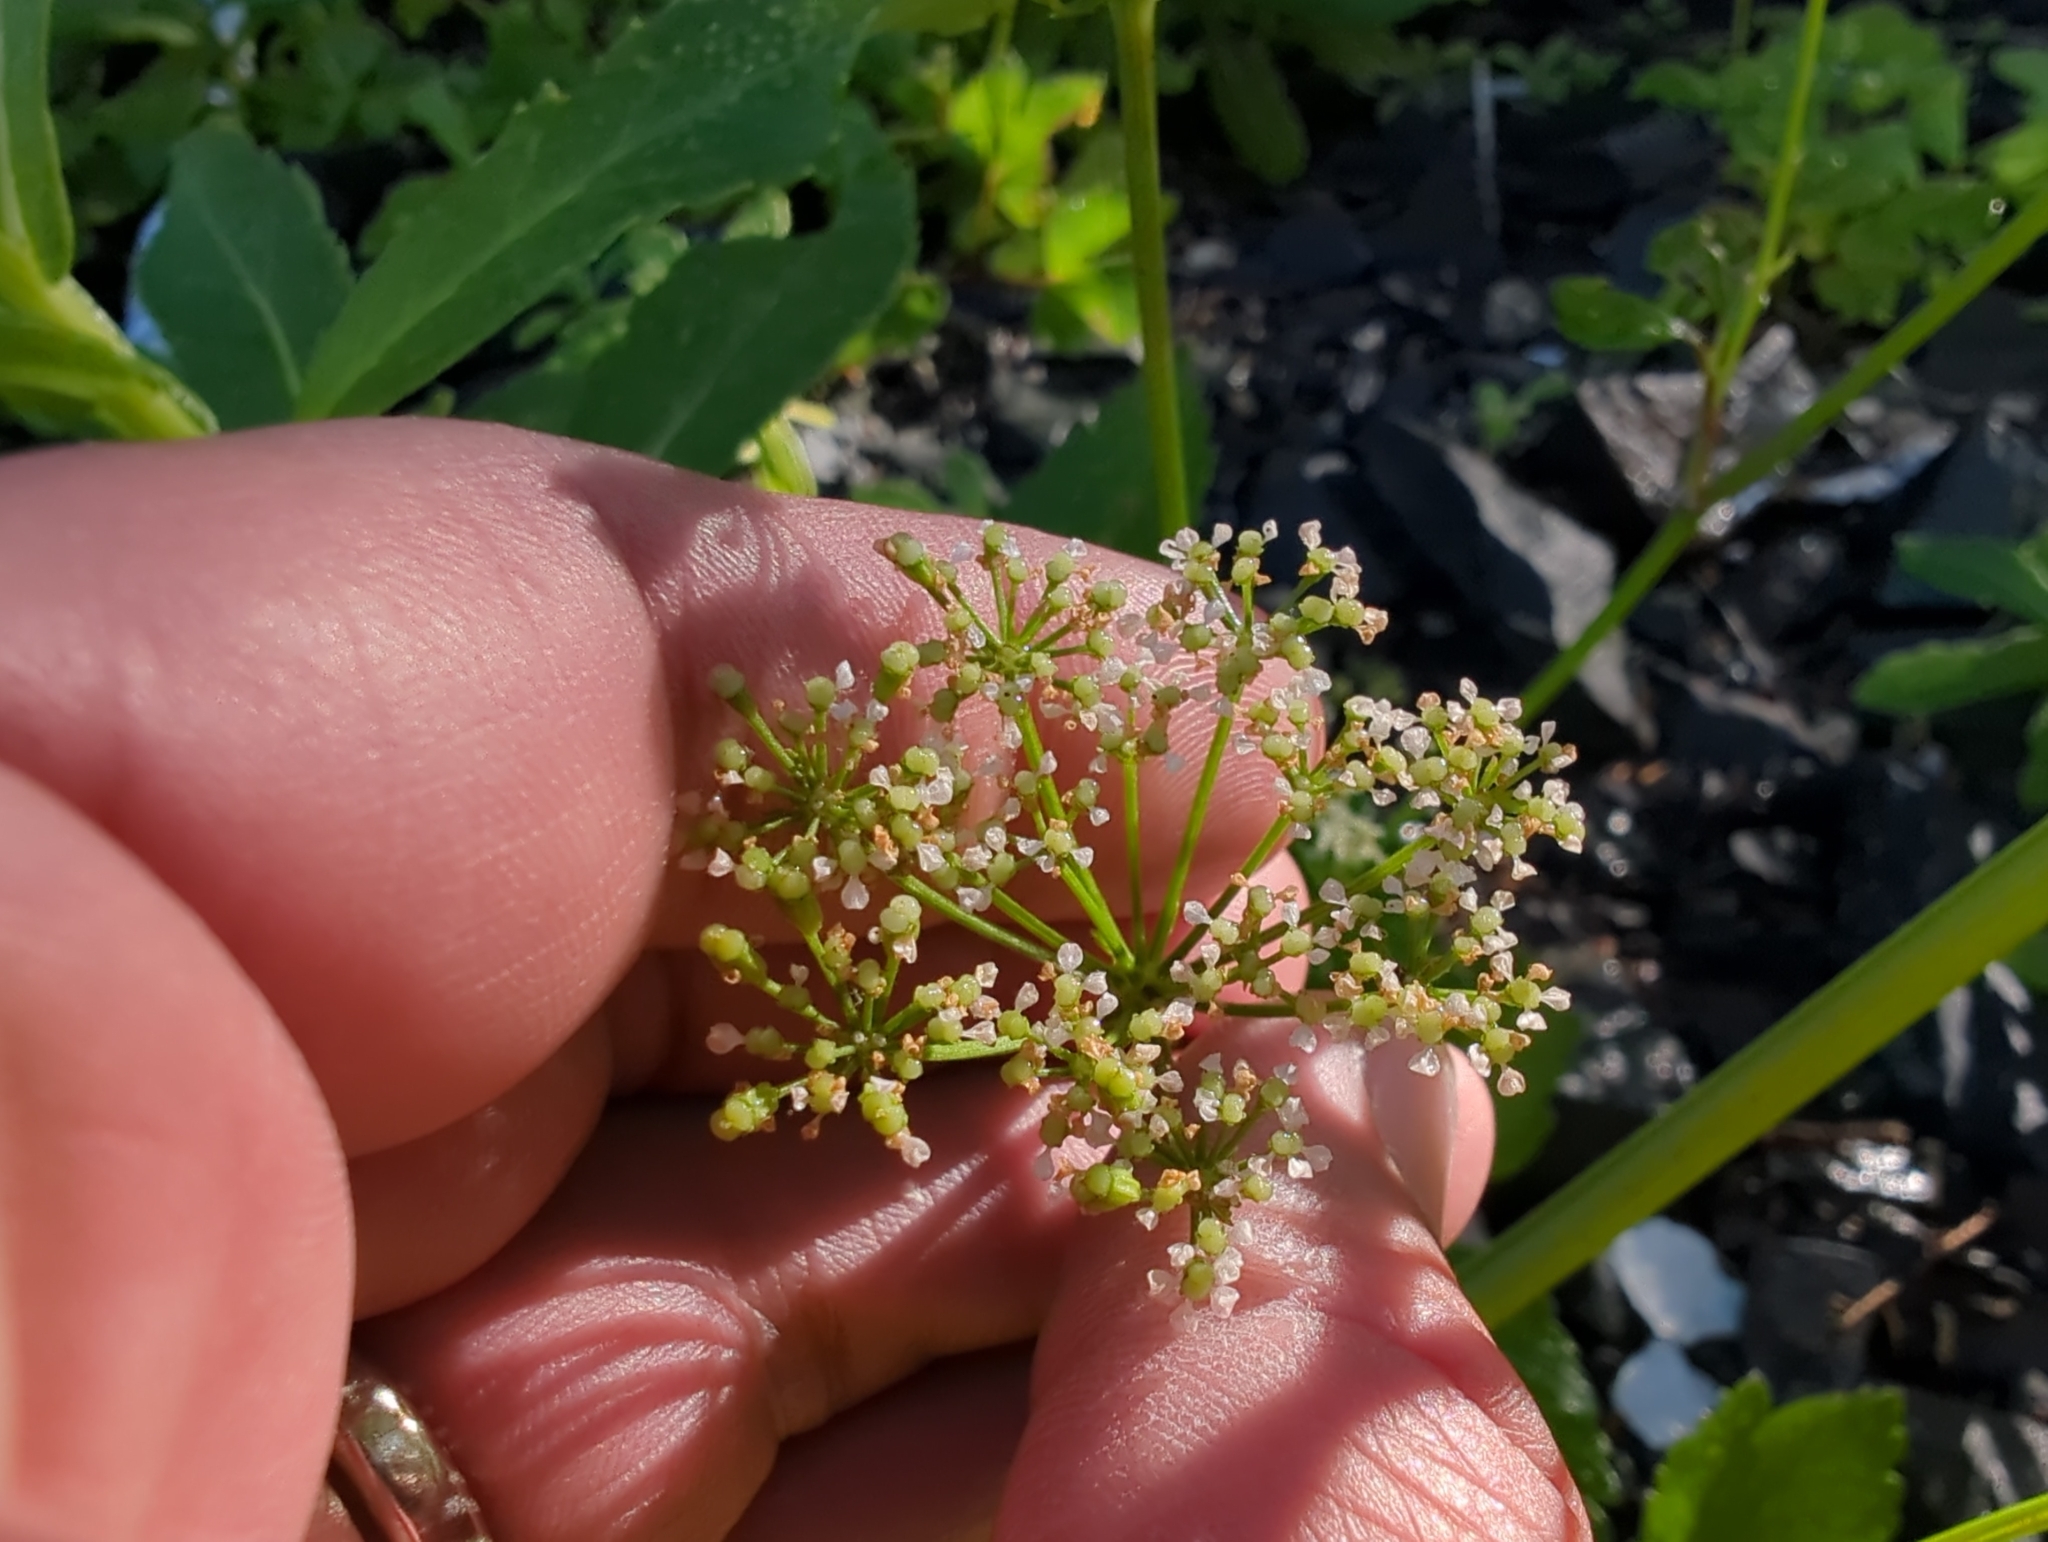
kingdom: Plantae
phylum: Tracheophyta
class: Magnoliopsida
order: Apiales
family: Apiaceae
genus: Ligusticum
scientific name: Ligusticum scothicum
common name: Beach lovage
